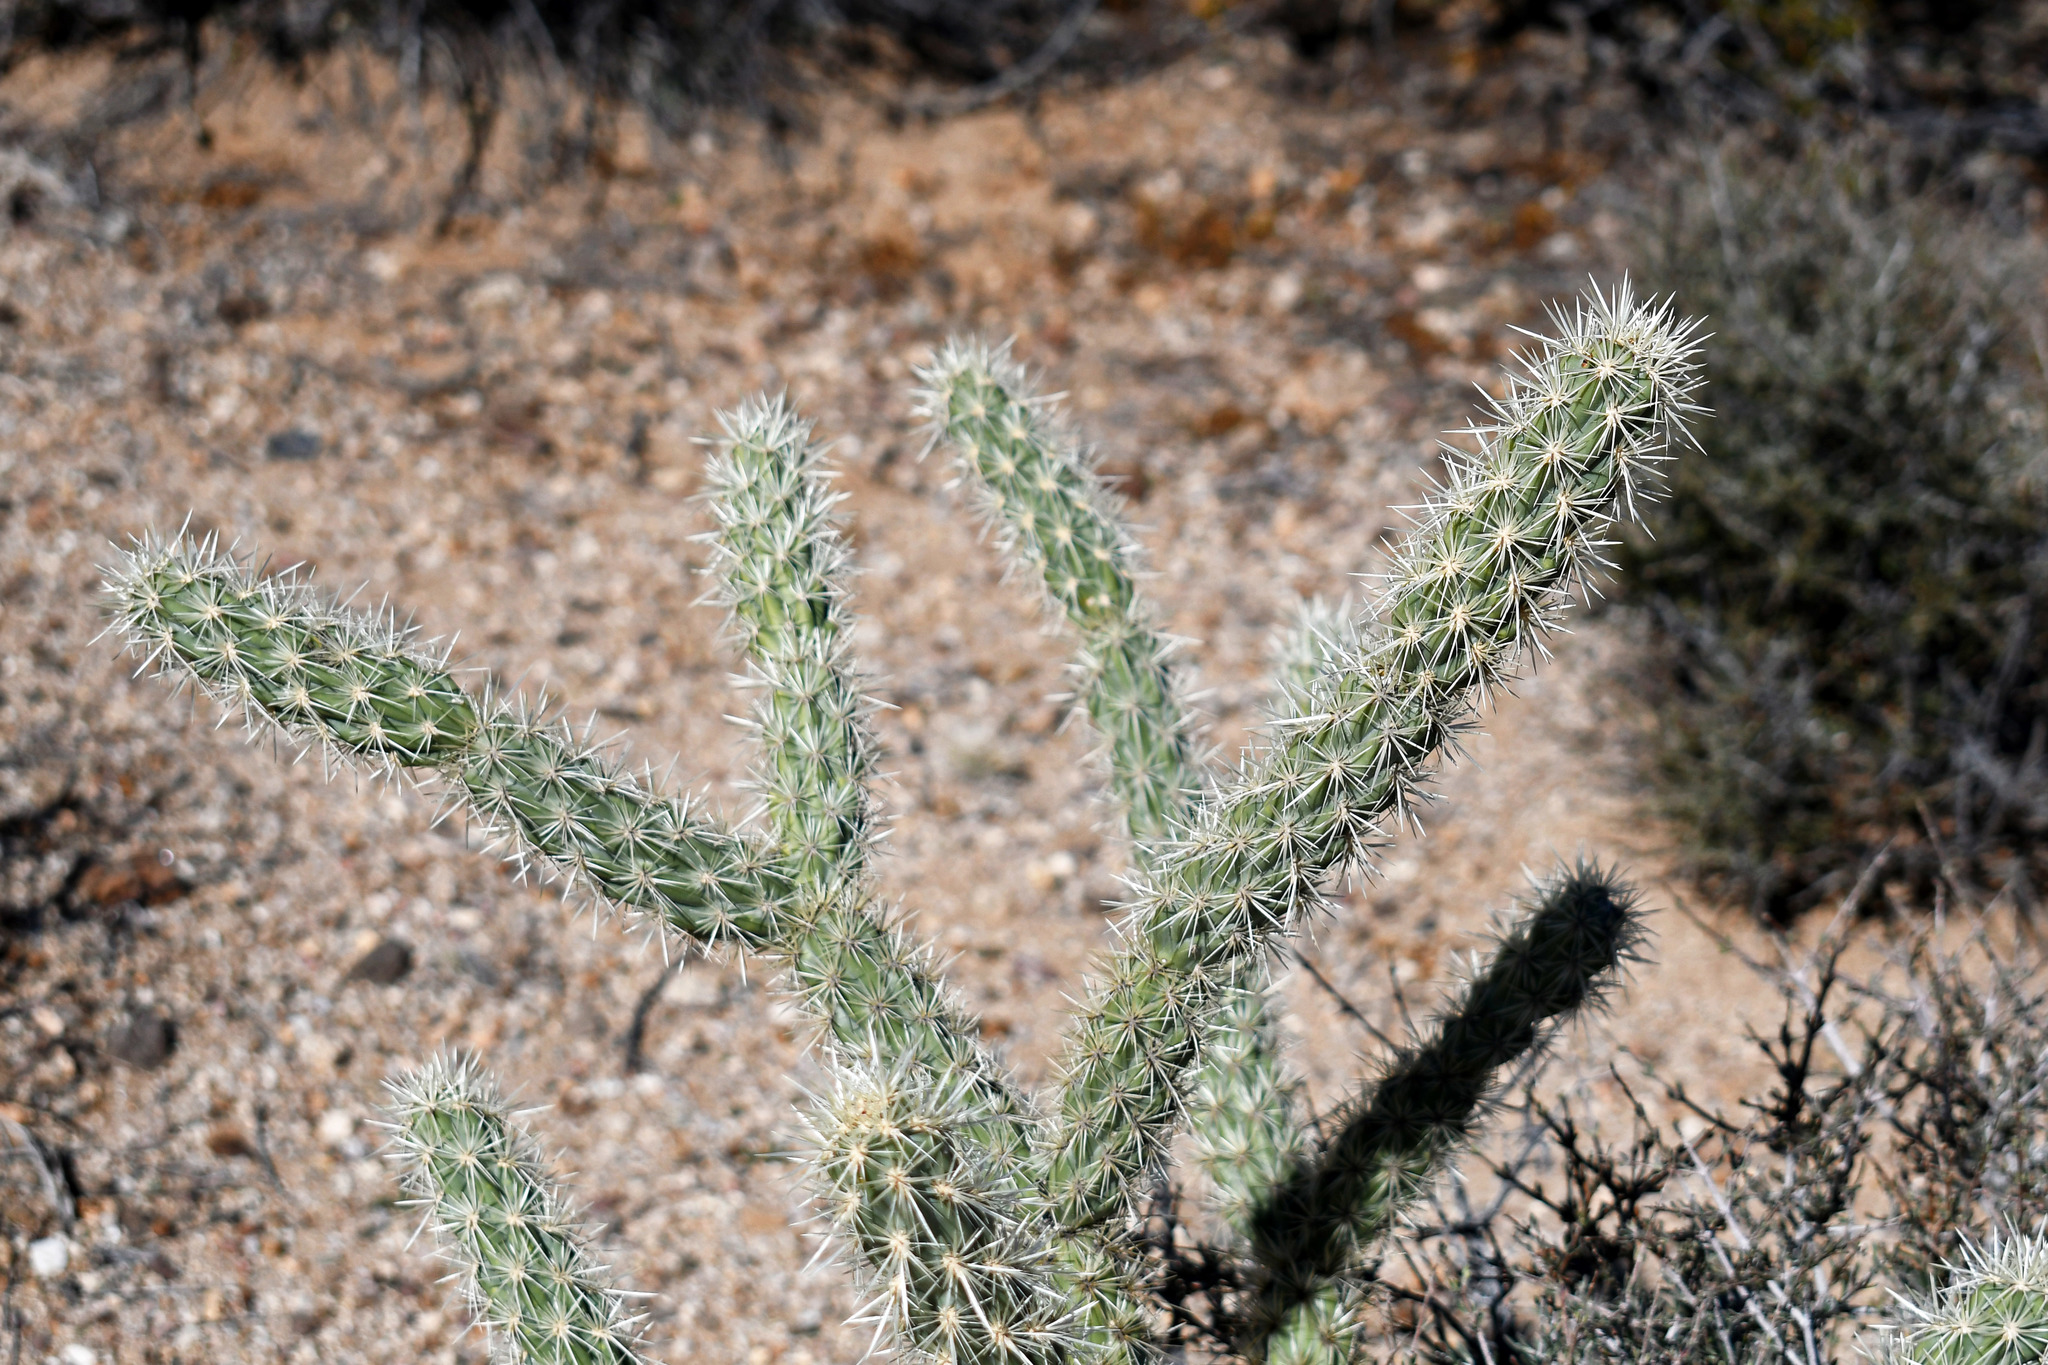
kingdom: Plantae
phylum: Tracheophyta
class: Magnoliopsida
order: Caryophyllales
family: Cactaceae
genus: Cylindropuntia
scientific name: Cylindropuntia acanthocarpa
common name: Buckhorn cholla
